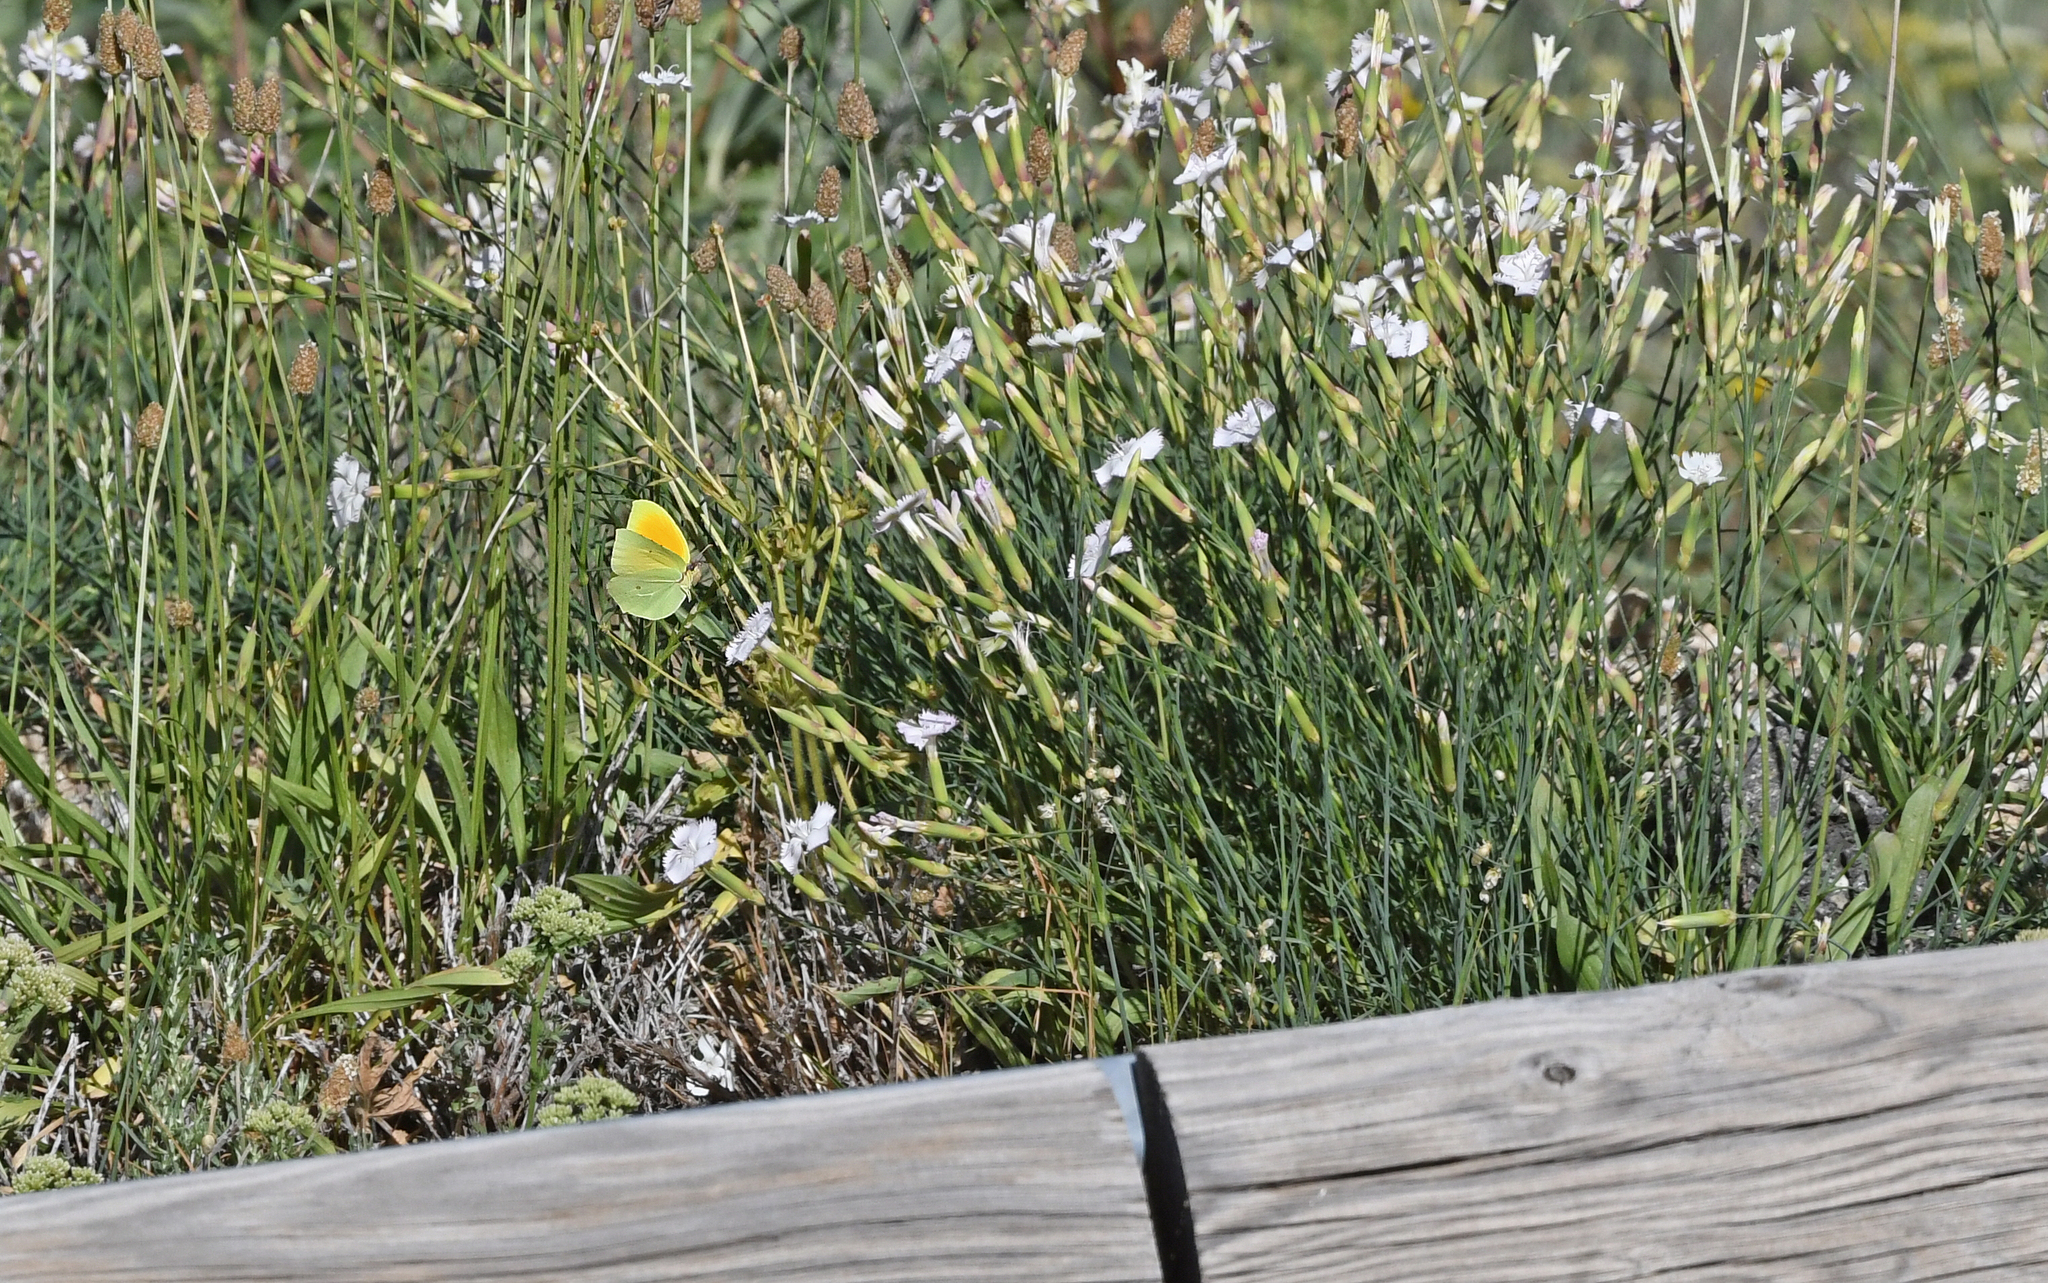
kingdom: Animalia
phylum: Arthropoda
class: Insecta
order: Lepidoptera
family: Pieridae
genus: Gonepteryx
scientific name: Gonepteryx cleopatra
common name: Cleopatra
